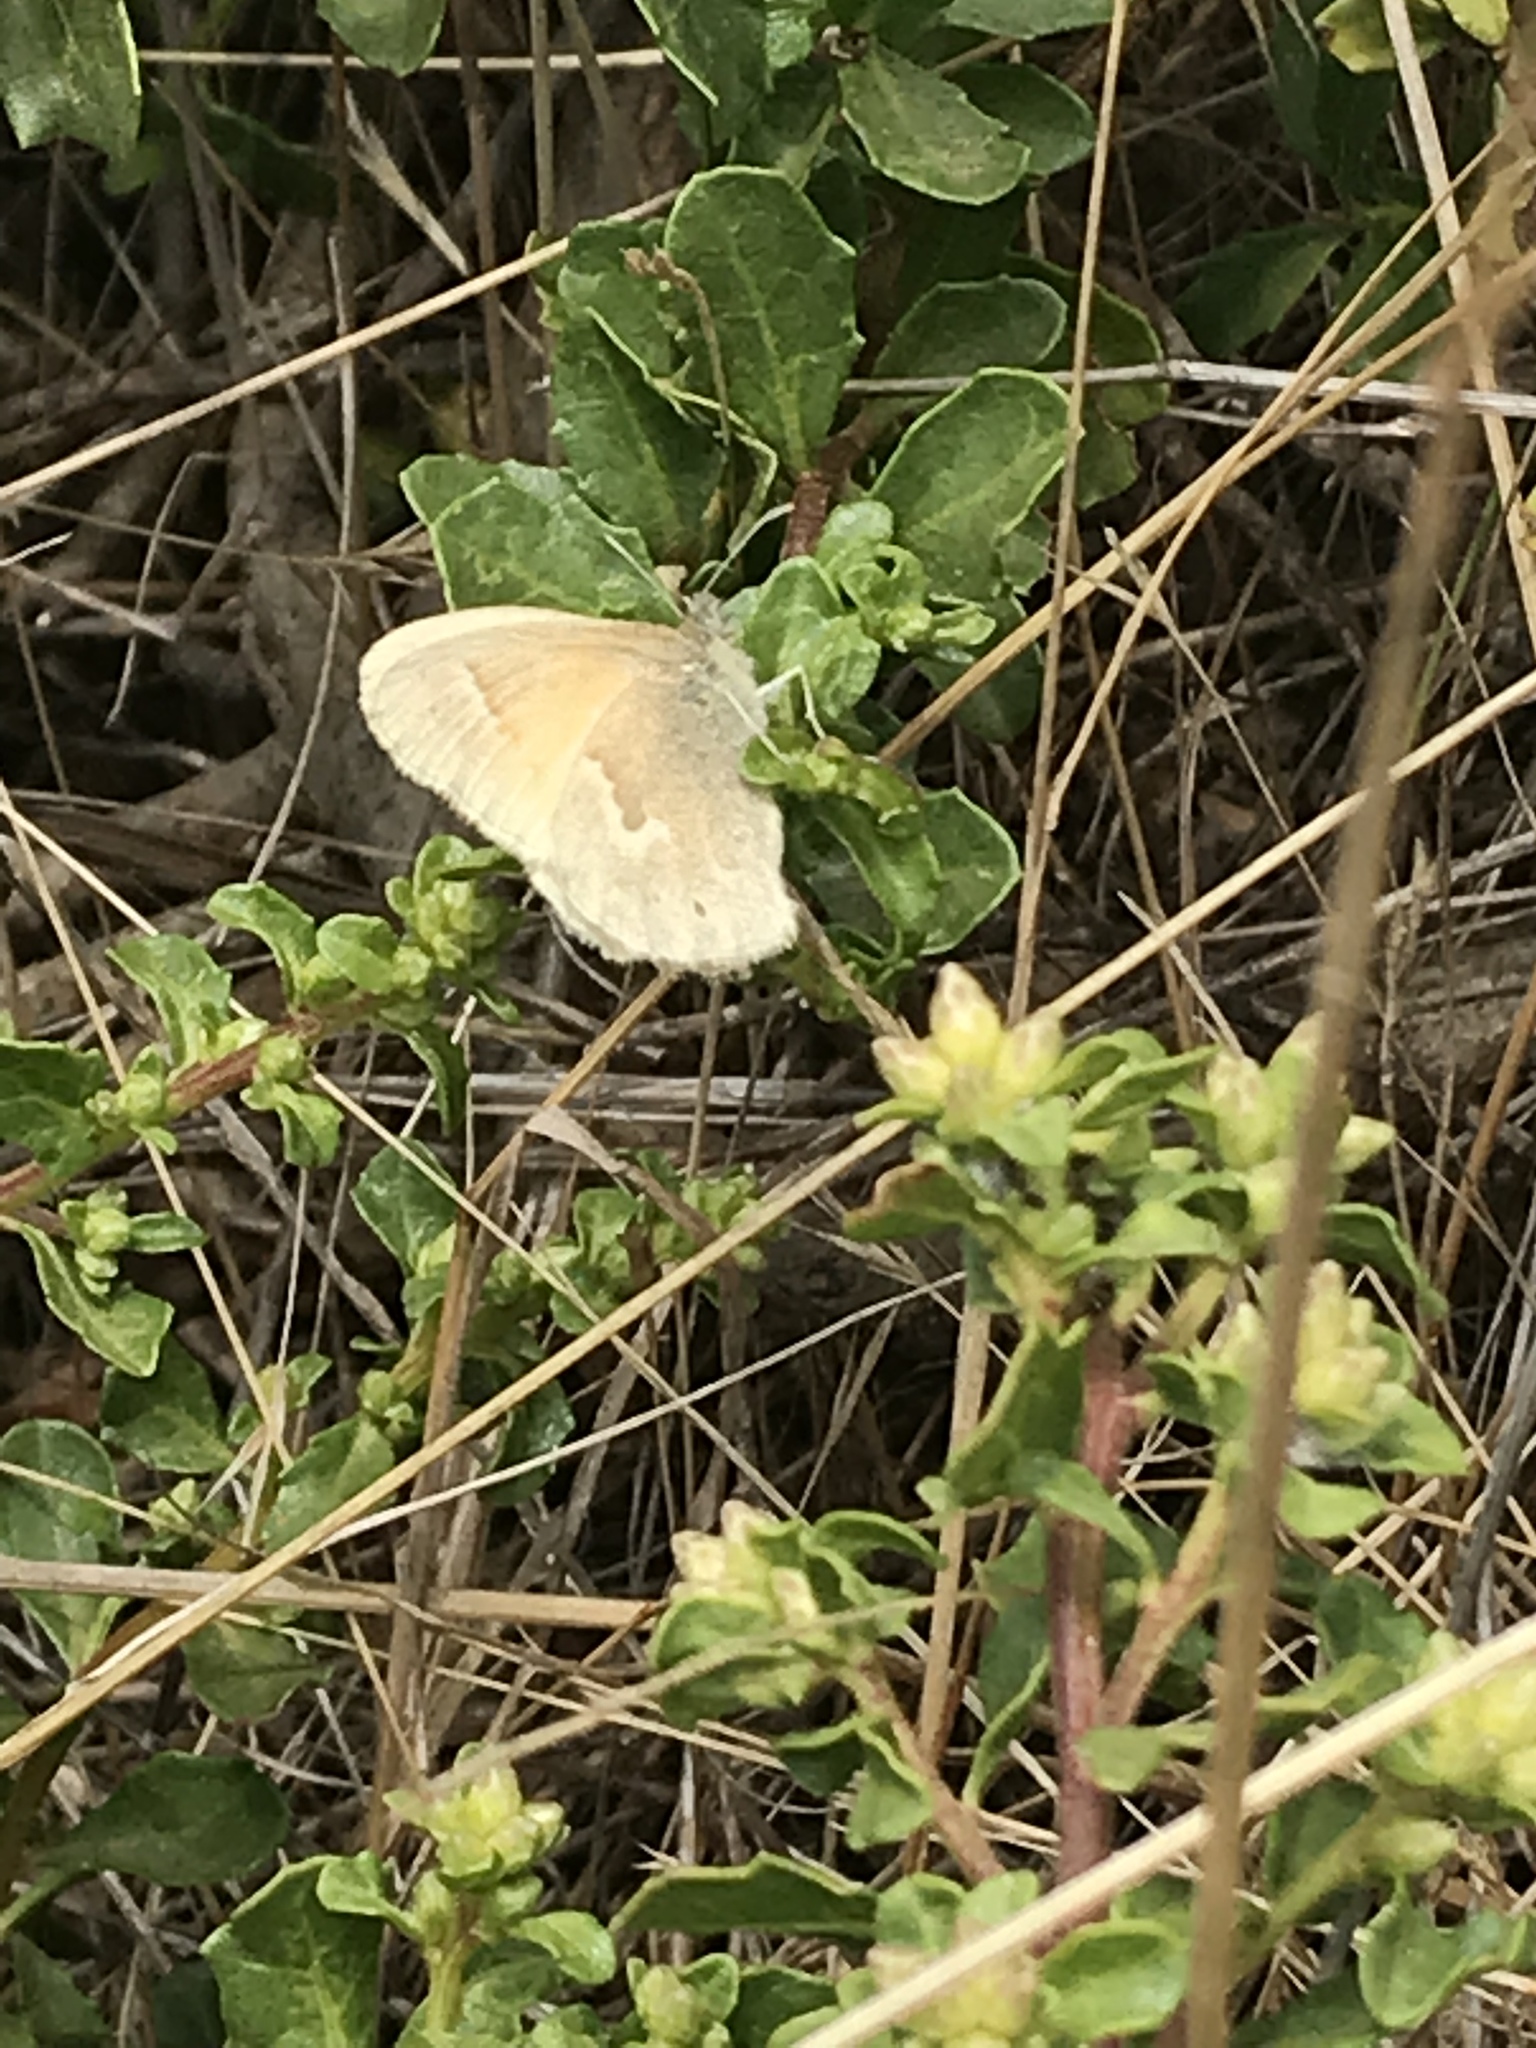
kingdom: Animalia
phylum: Arthropoda
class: Insecta
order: Lepidoptera
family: Nymphalidae
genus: Coenonympha
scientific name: Coenonympha california
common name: Common ringlet
